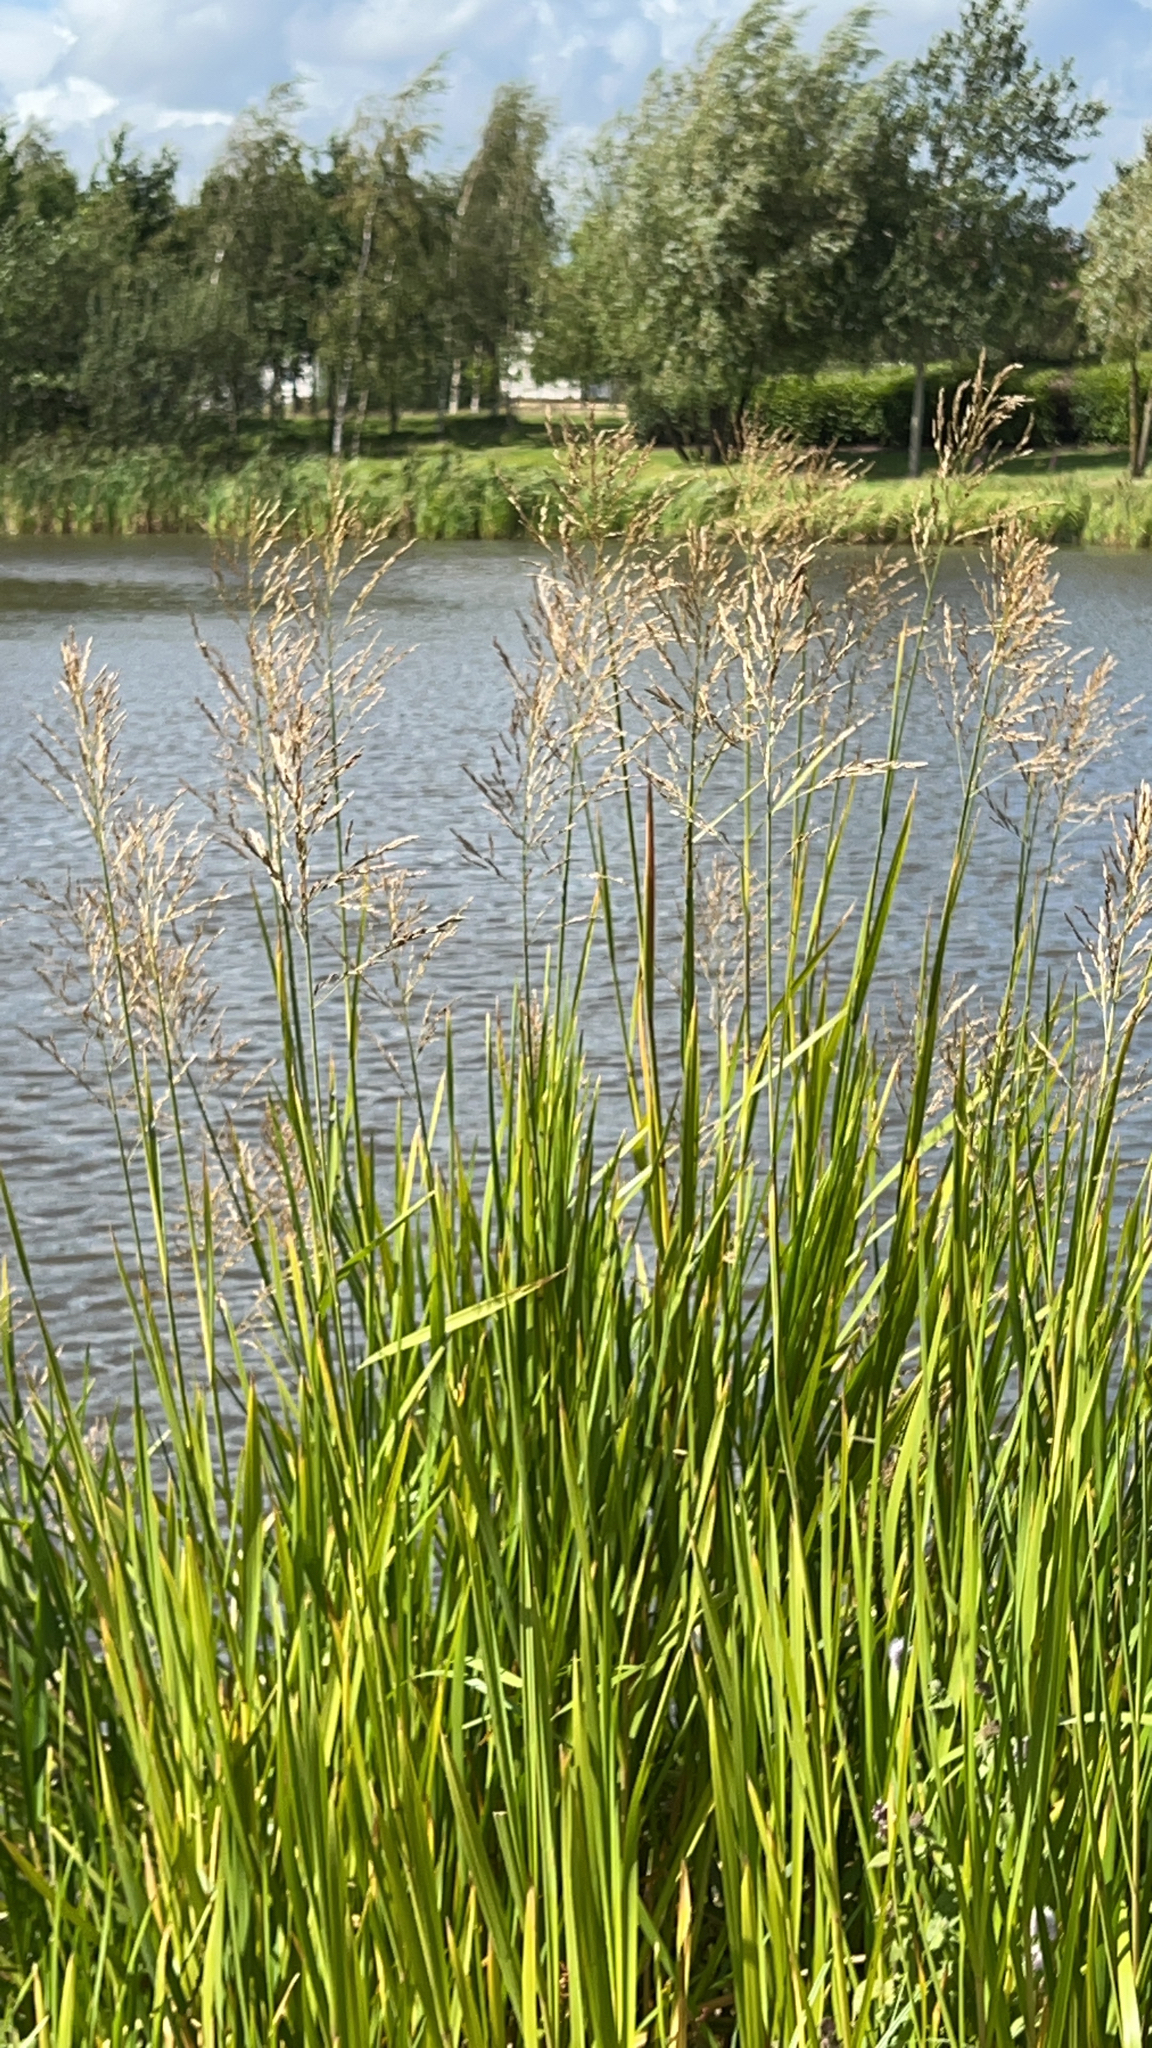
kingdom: Plantae
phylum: Tracheophyta
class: Liliopsida
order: Poales
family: Poaceae
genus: Glyceria
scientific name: Glyceria maxima
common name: Reed mannagrass
